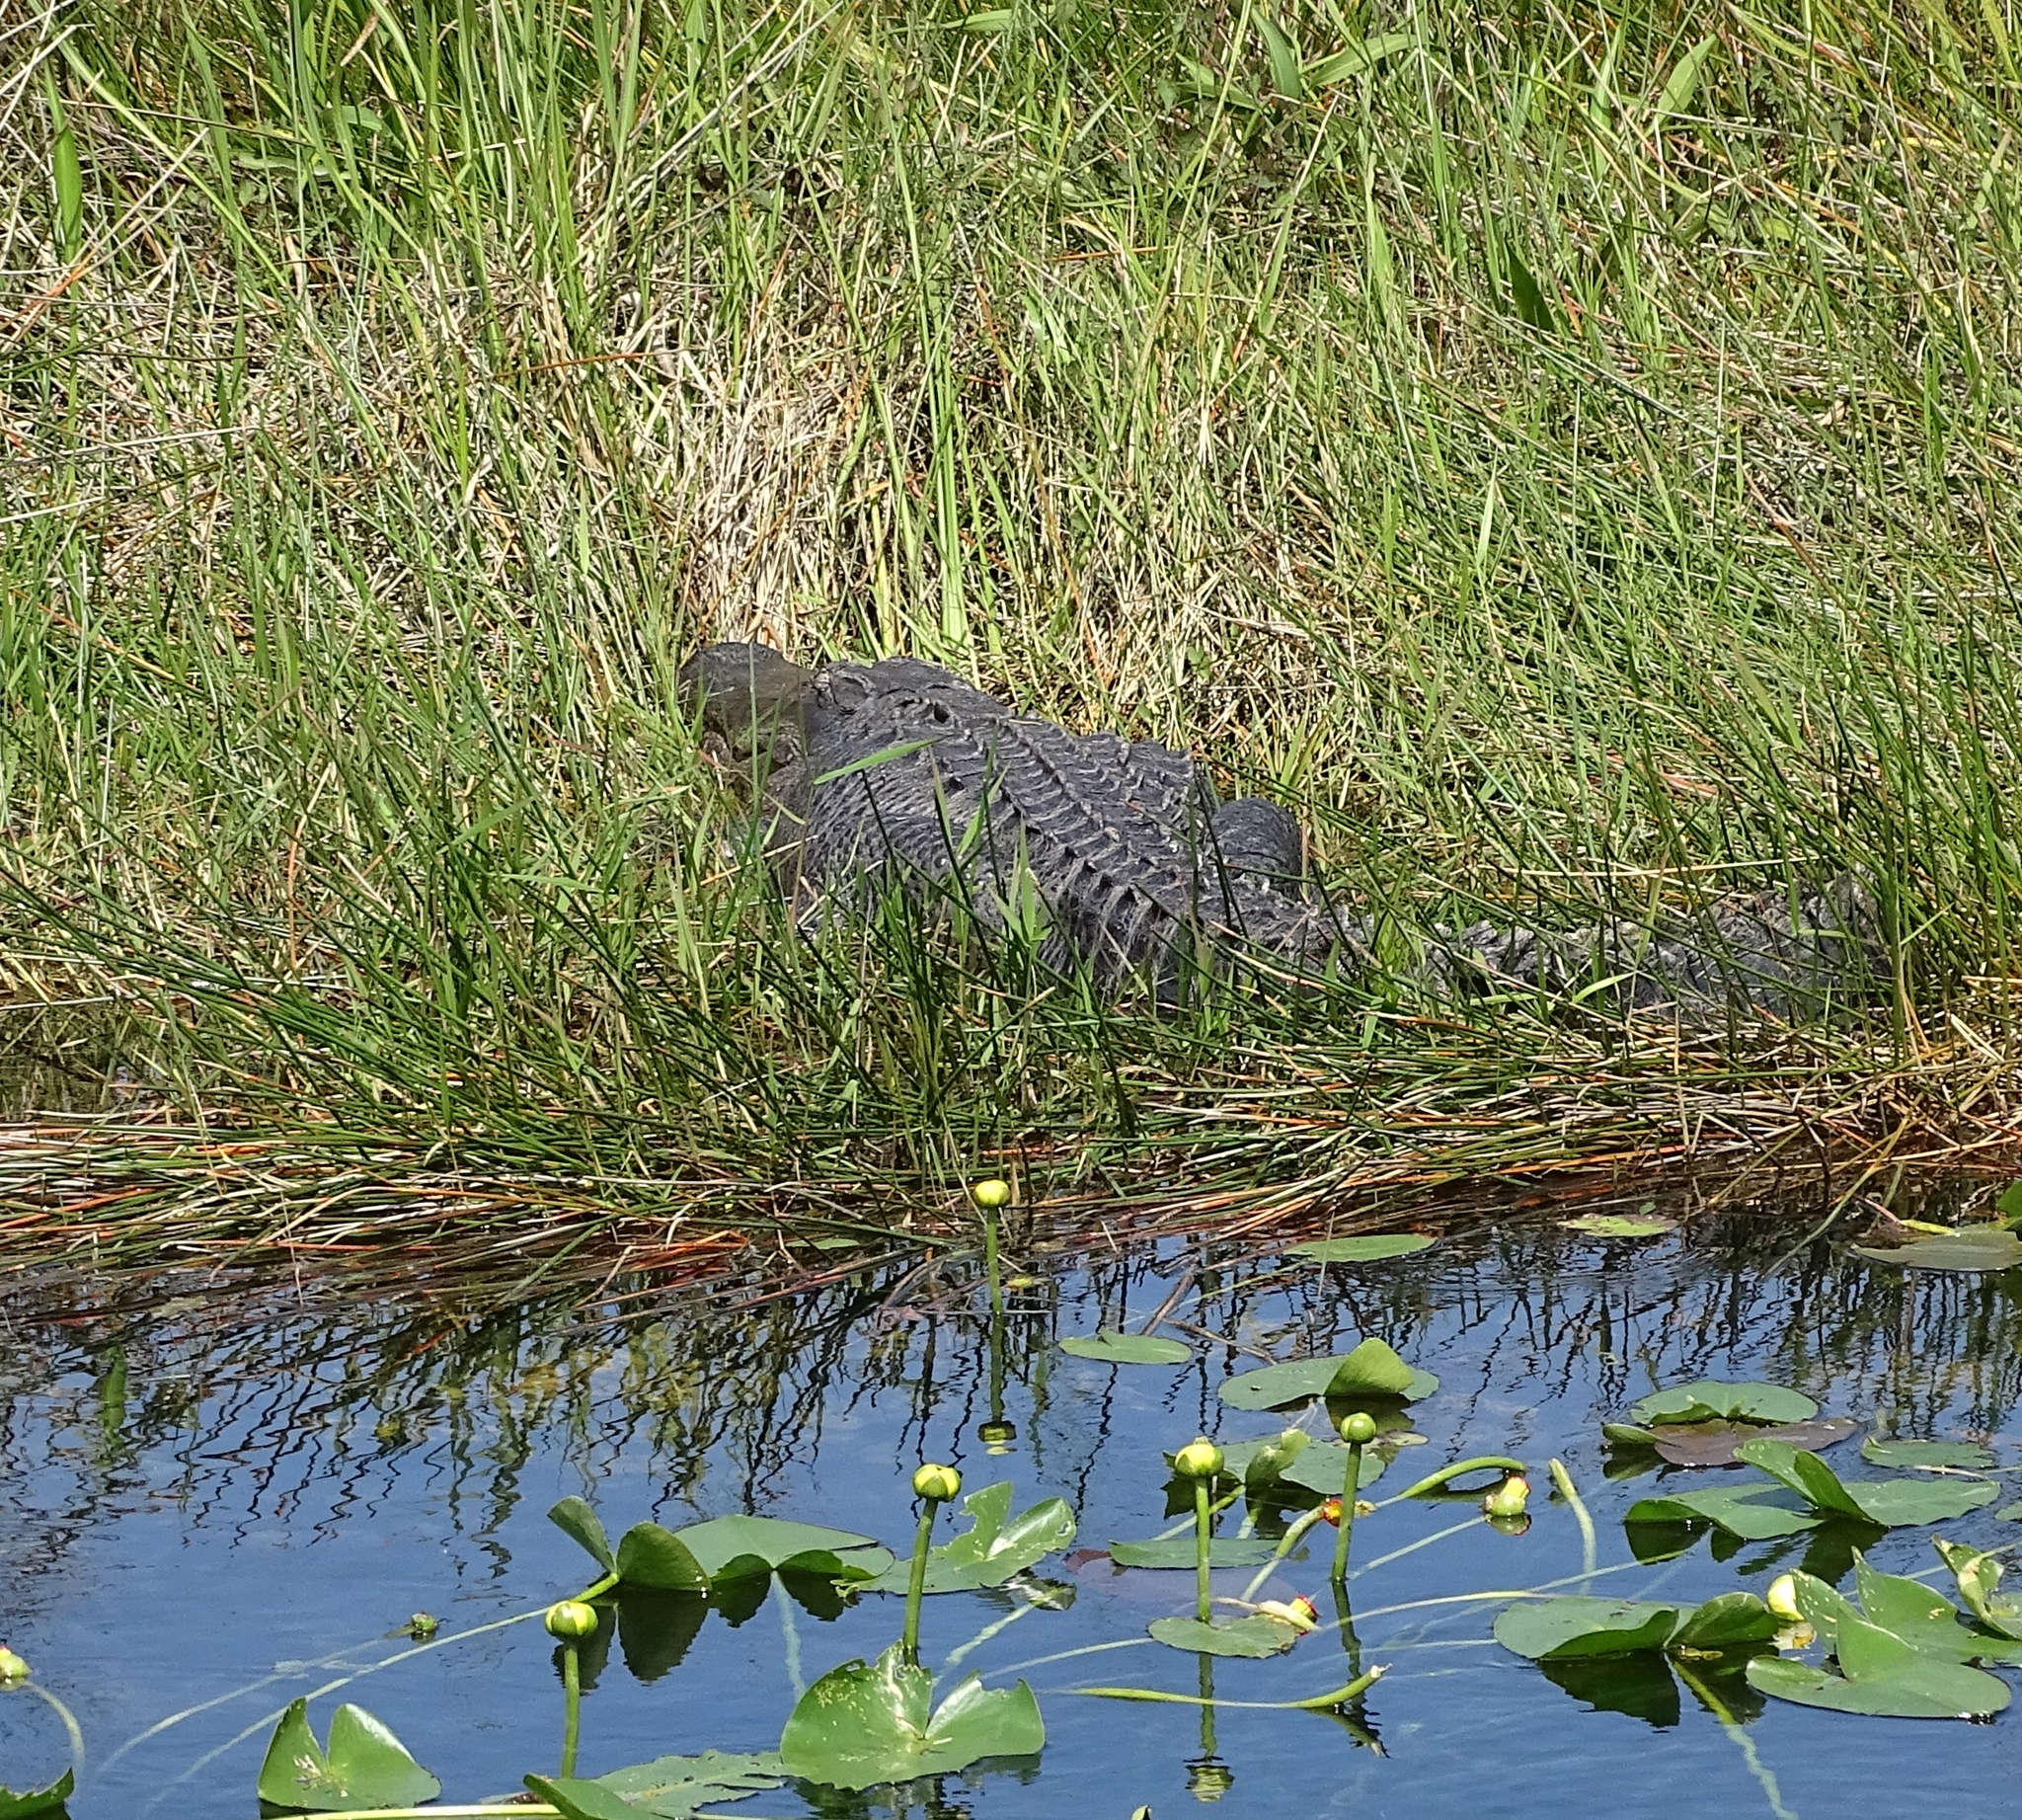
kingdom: Animalia
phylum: Chordata
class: Crocodylia
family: Alligatoridae
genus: Alligator
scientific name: Alligator mississippiensis
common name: American alligator
